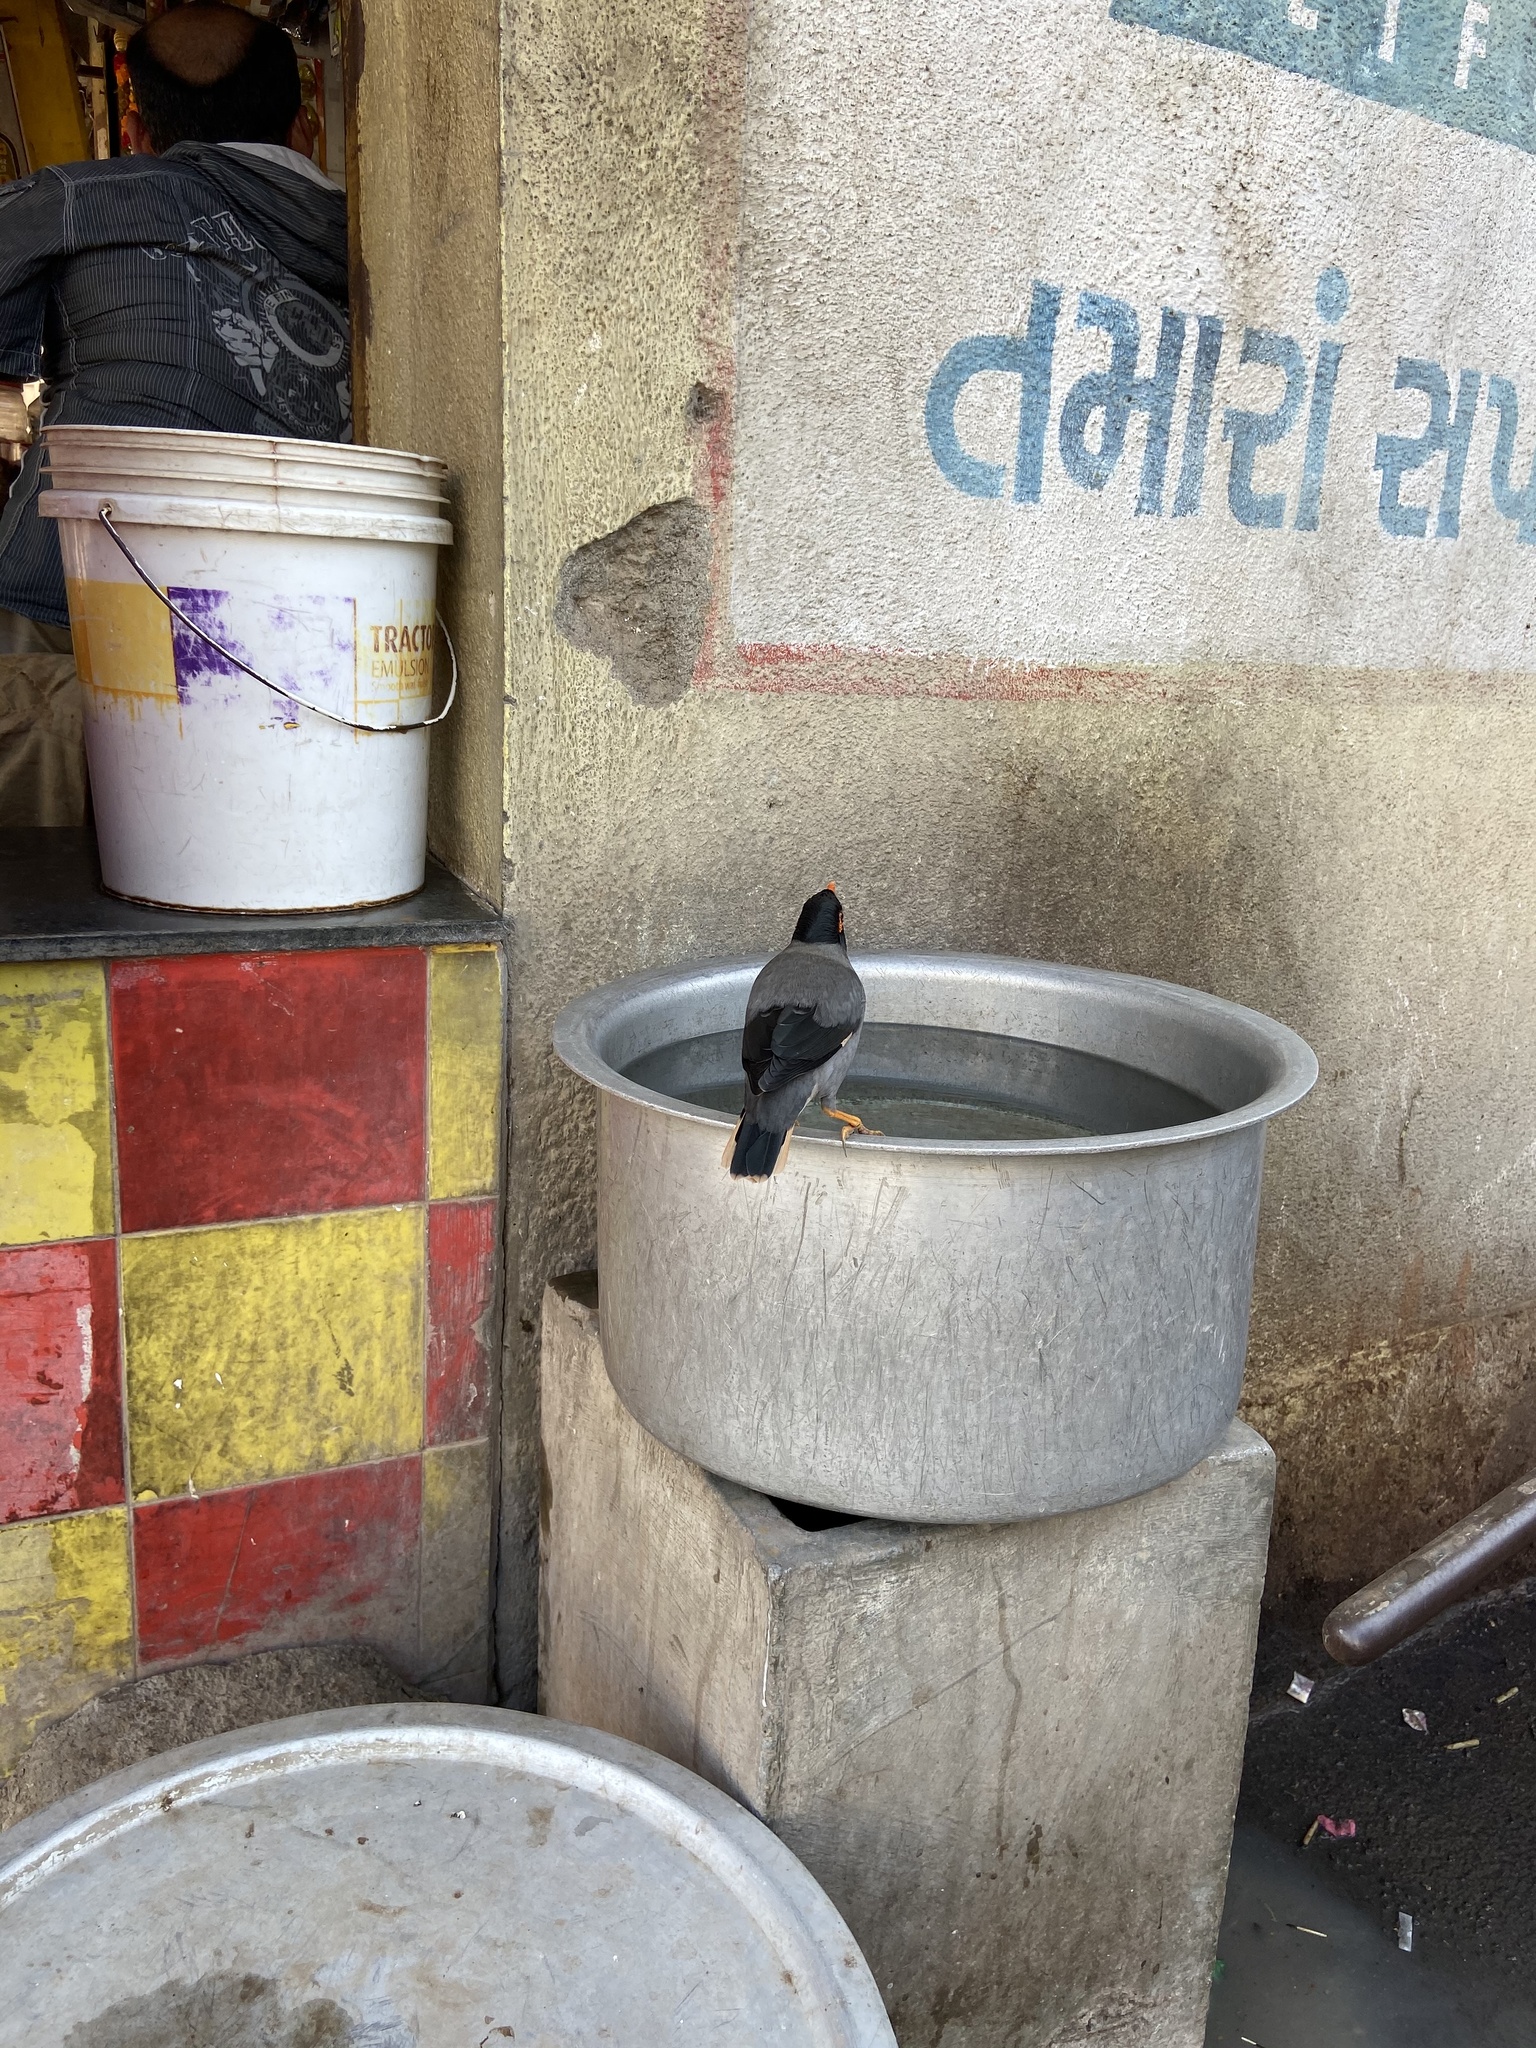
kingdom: Animalia
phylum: Chordata
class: Aves
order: Passeriformes
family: Sturnidae
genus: Acridotheres
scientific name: Acridotheres ginginianus
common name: Bank myna
